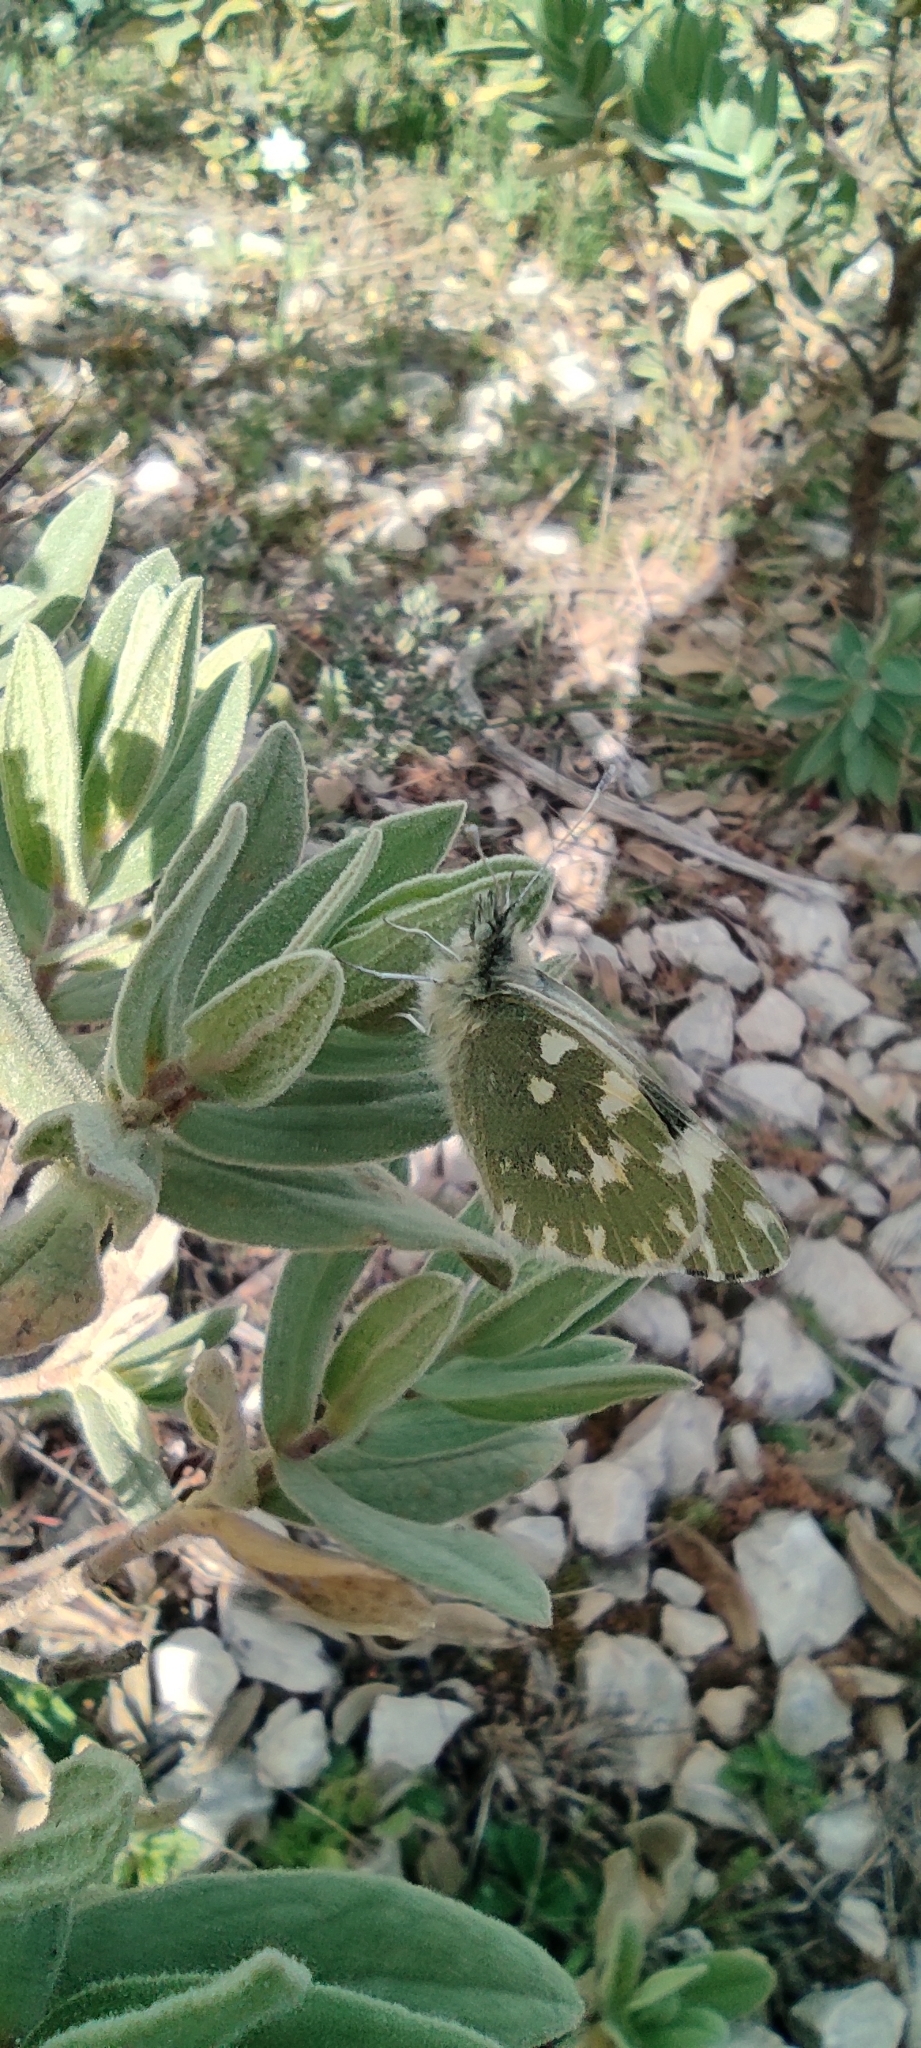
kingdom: Animalia
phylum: Arthropoda
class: Insecta
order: Lepidoptera
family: Pieridae
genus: Pontia
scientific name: Pontia daplidice
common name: Bath white
